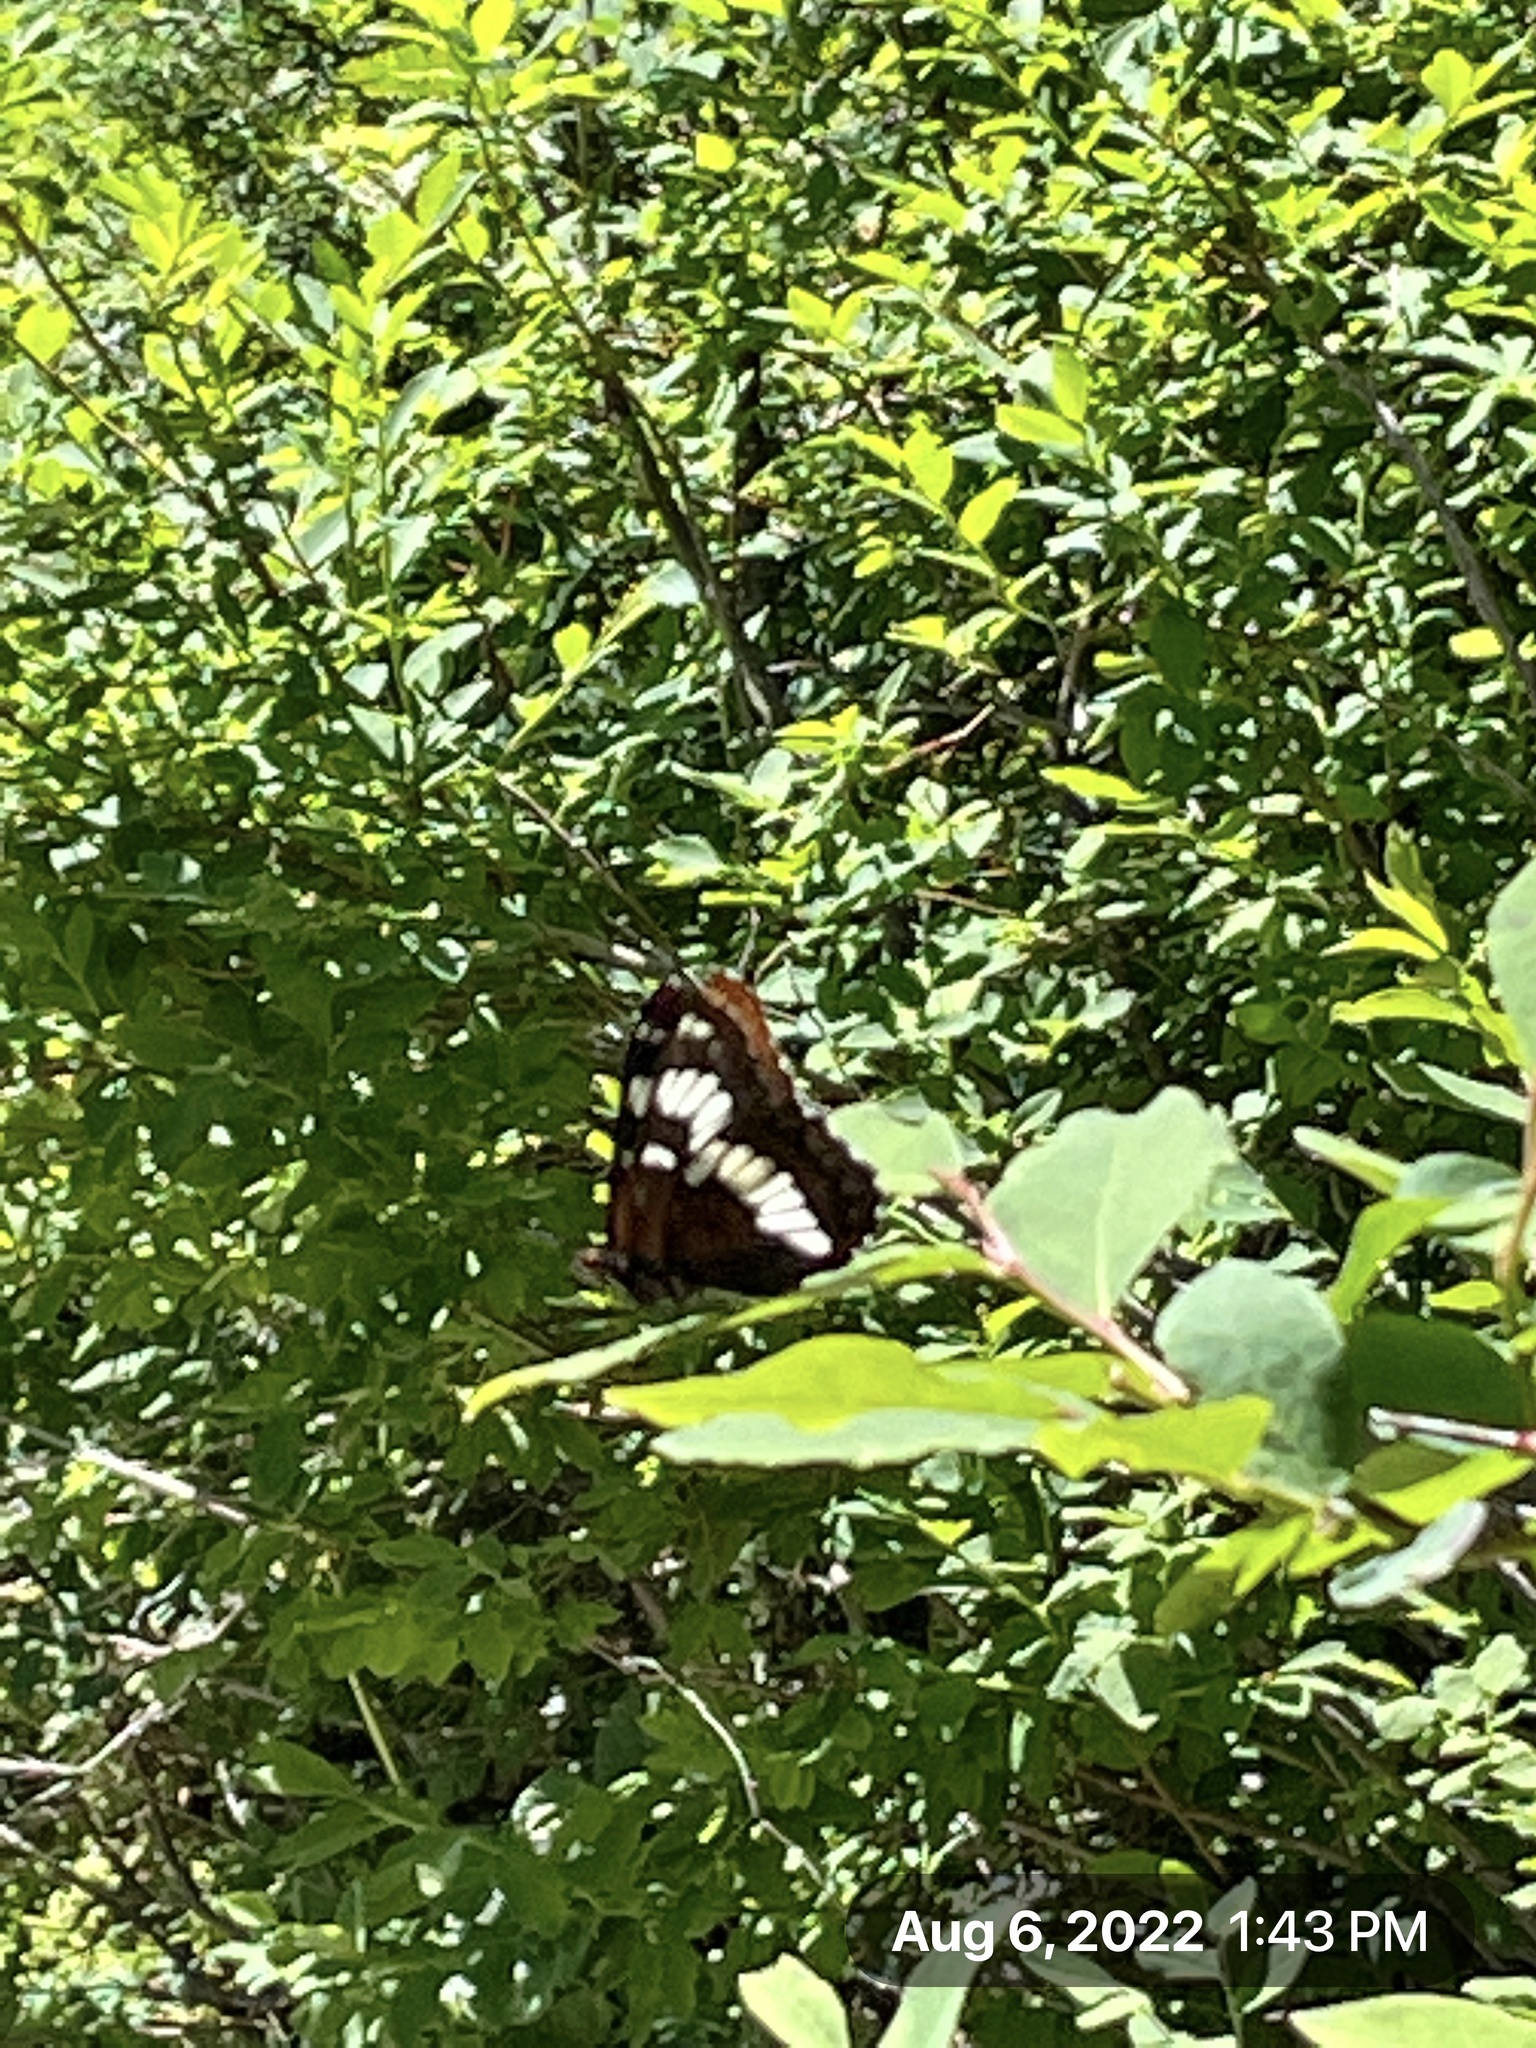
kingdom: Animalia
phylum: Arthropoda
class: Insecta
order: Lepidoptera
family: Nymphalidae
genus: Limenitis
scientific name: Limenitis lorquini
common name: Lorquin's admiral
